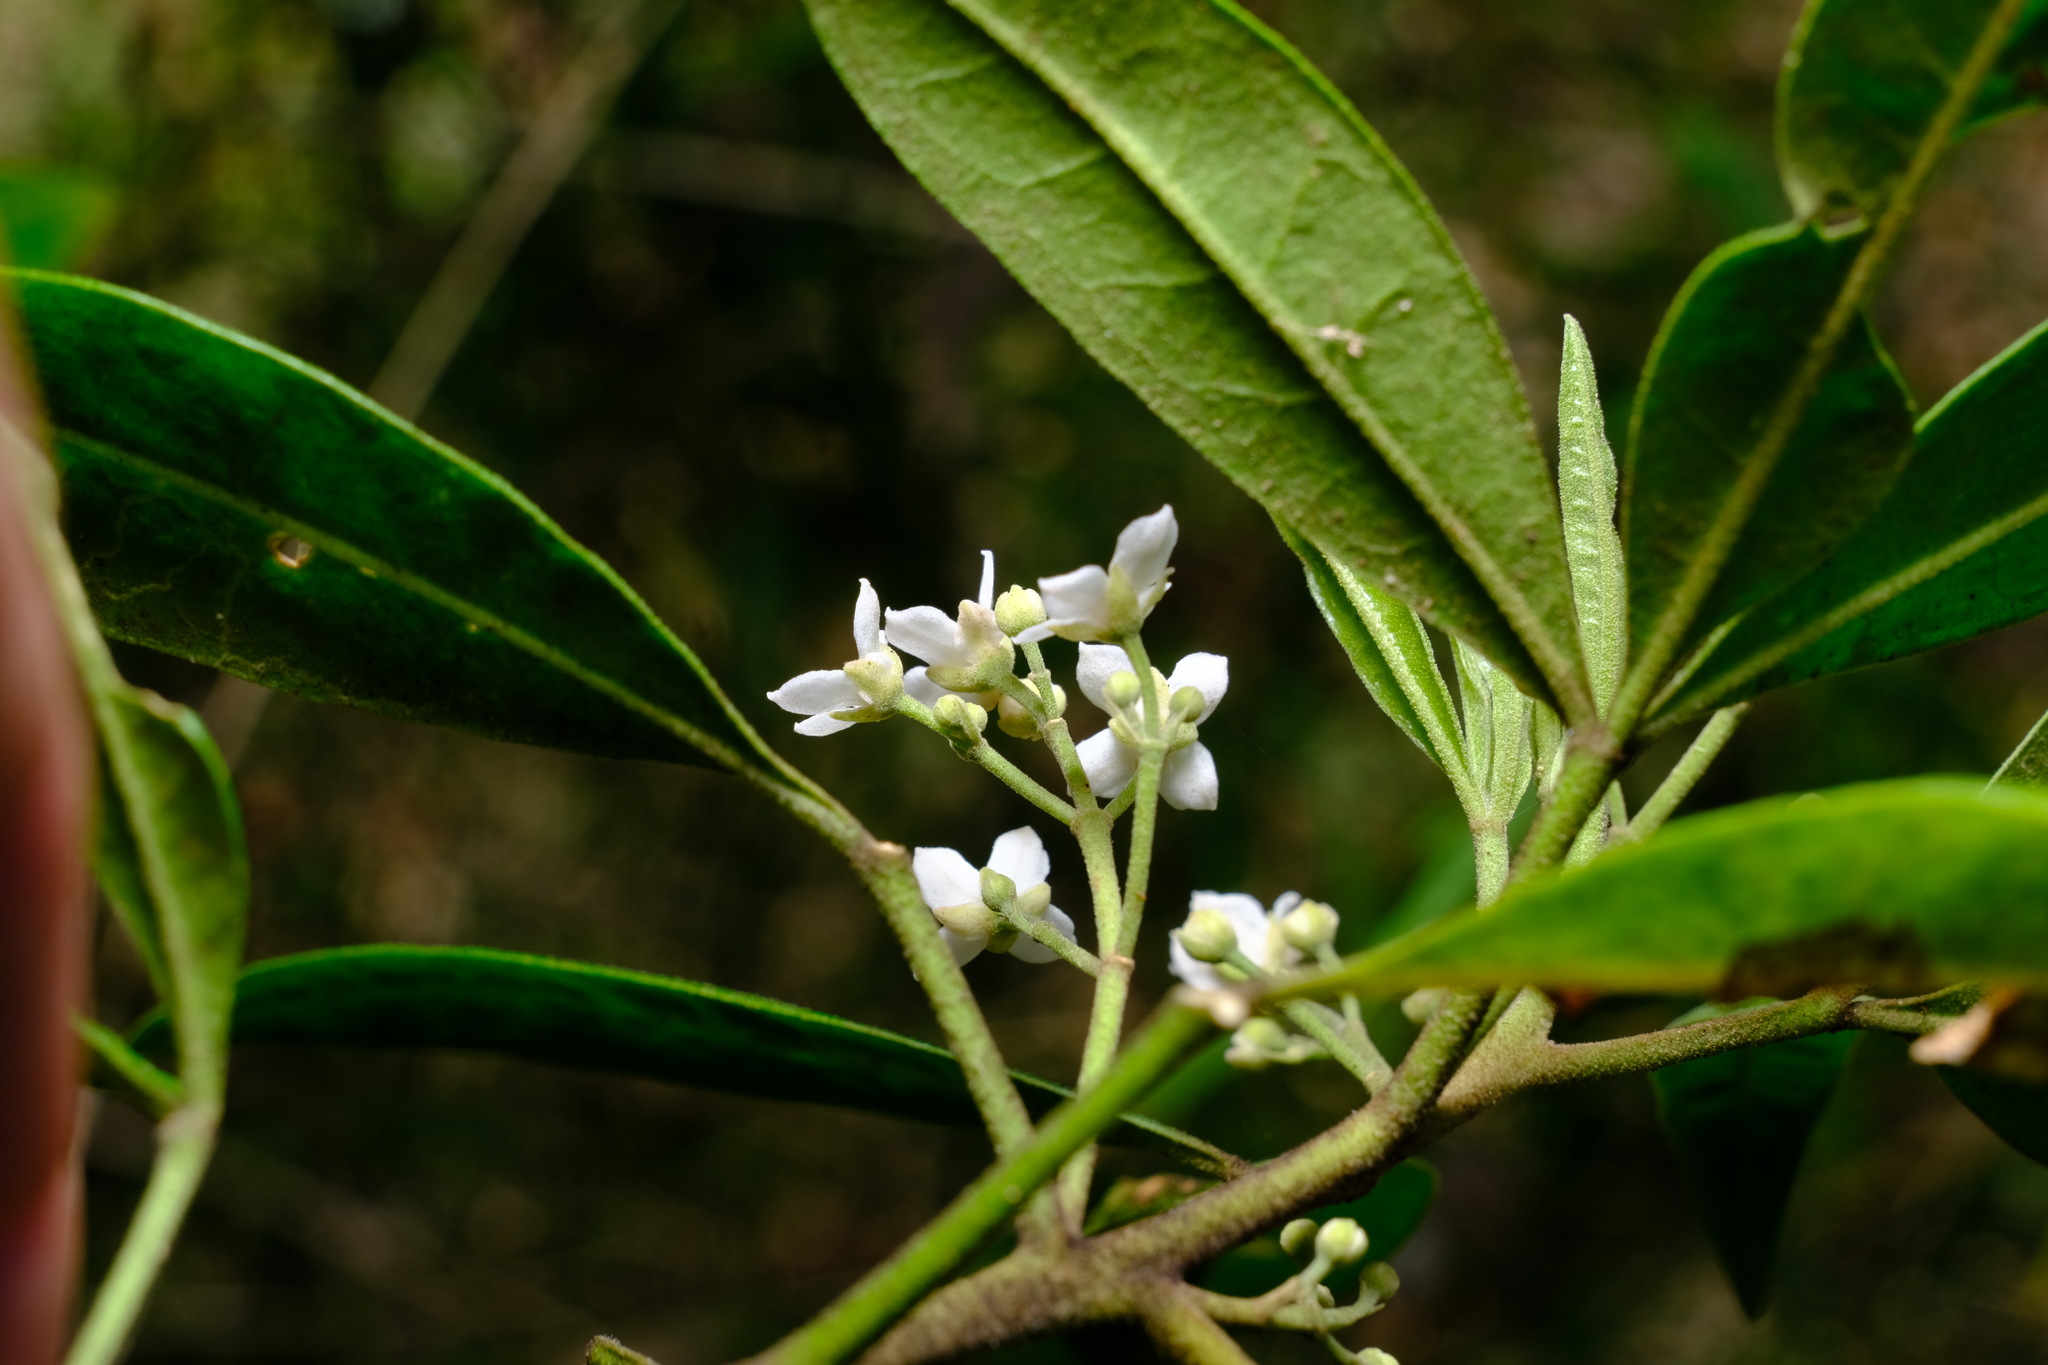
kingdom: Plantae
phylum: Tracheophyta
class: Magnoliopsida
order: Sapindales
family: Rutaceae
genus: Zieria
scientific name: Zieria arborescens
